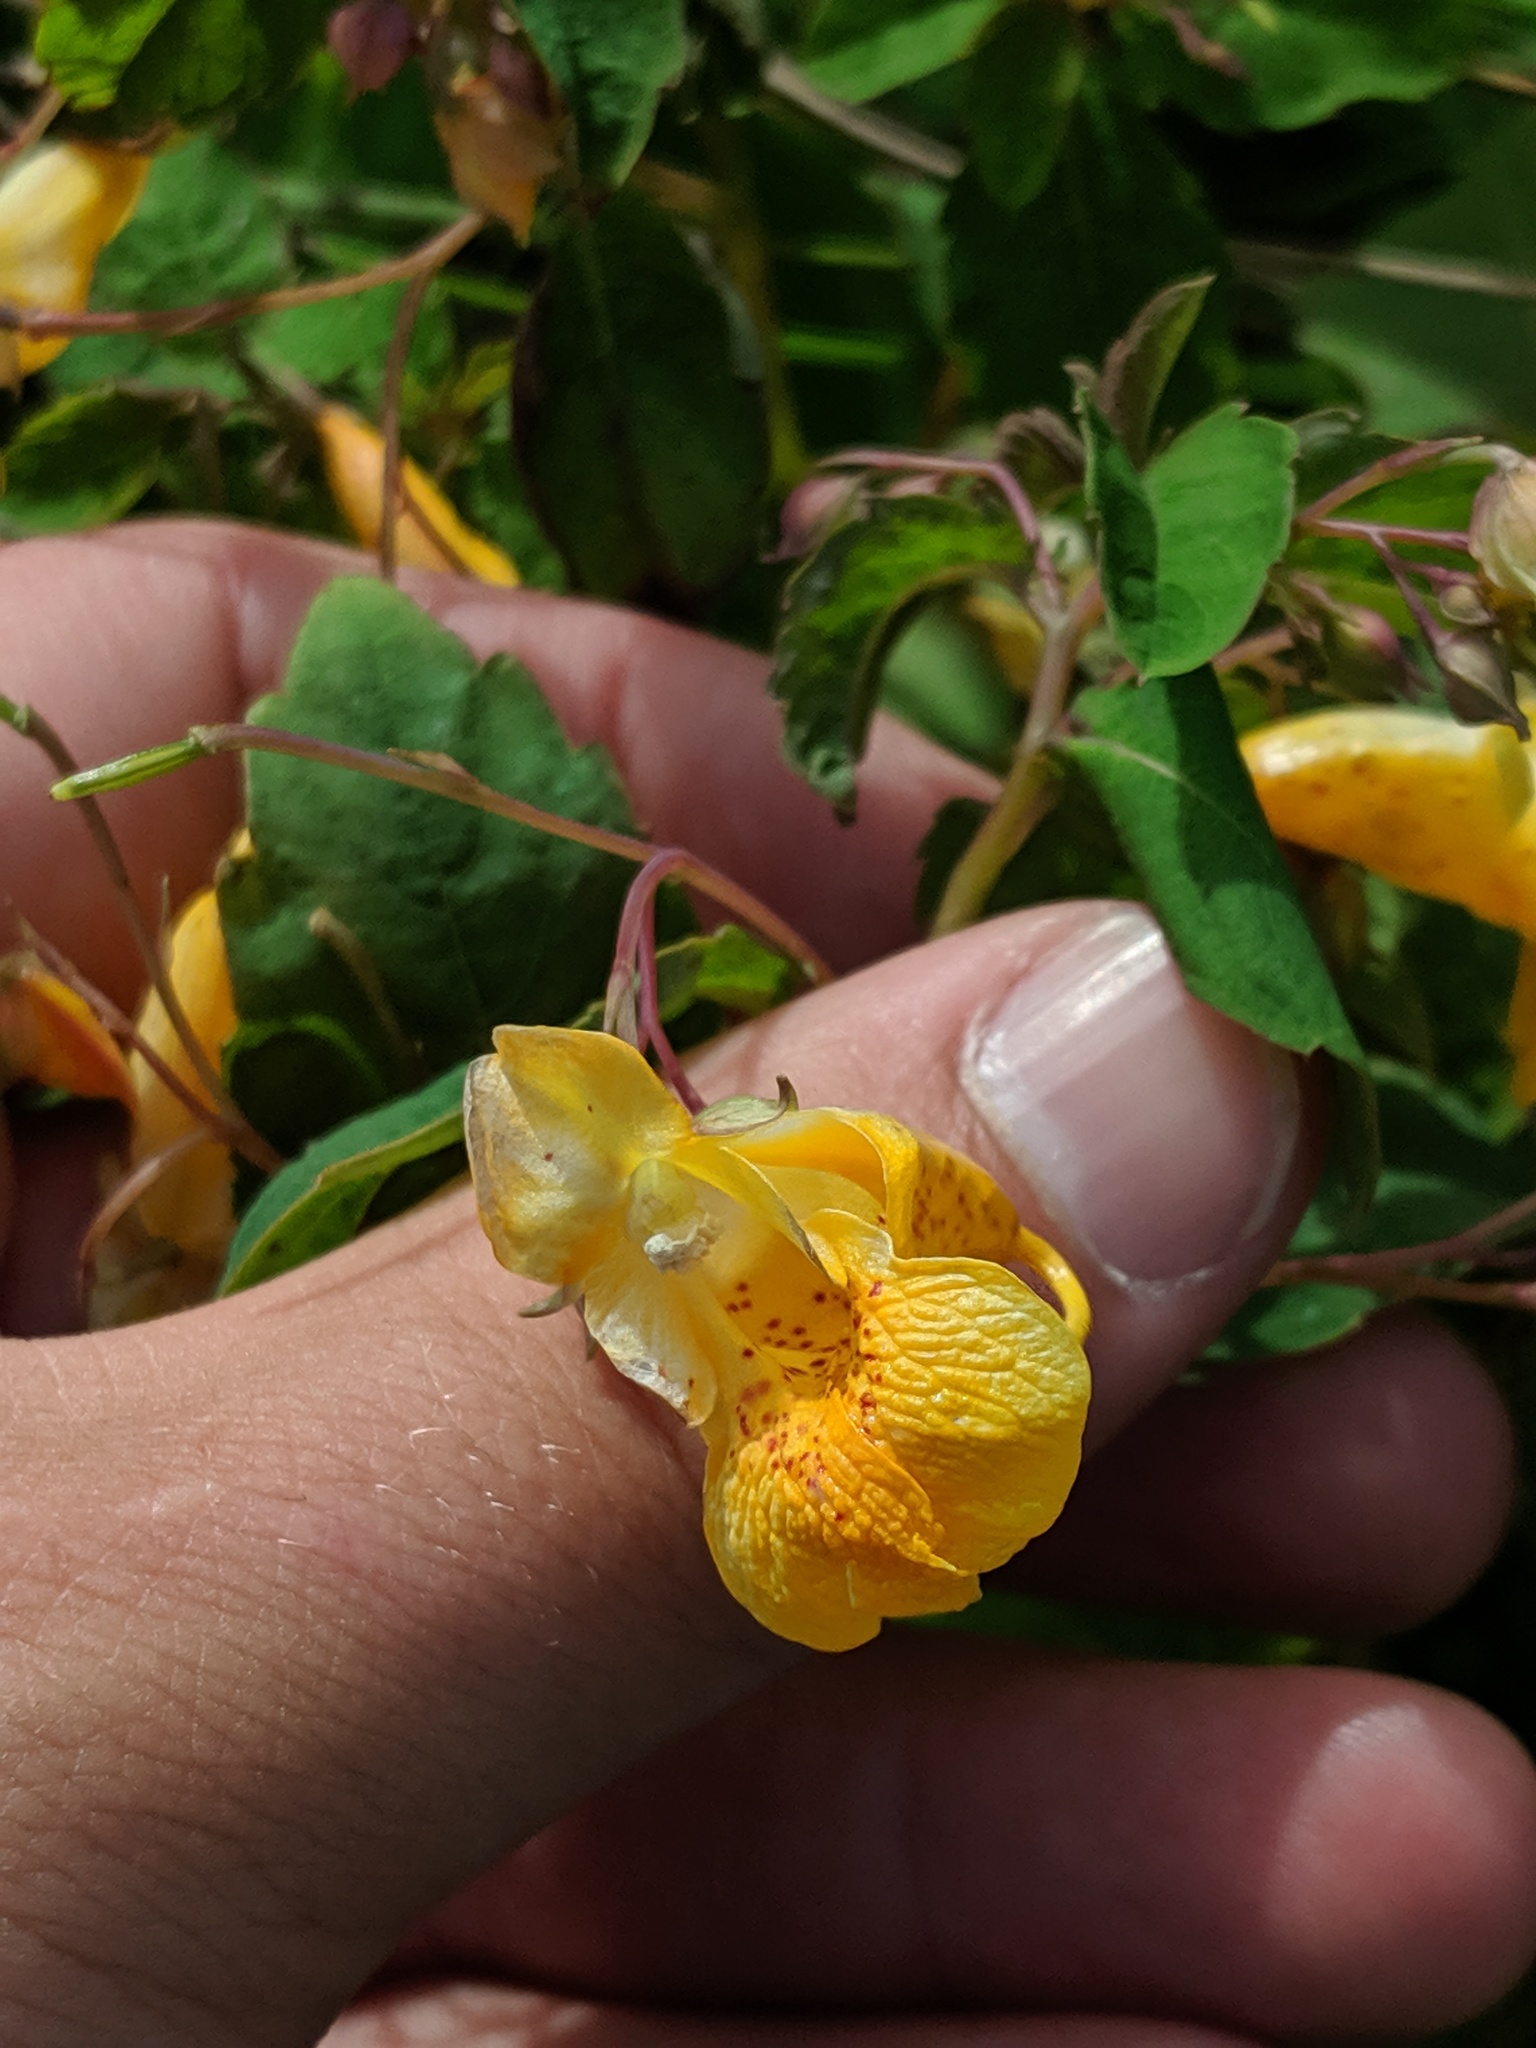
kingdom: Plantae
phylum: Tracheophyta
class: Magnoliopsida
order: Ericales
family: Balsaminaceae
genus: Impatiens
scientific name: Impatiens capensis
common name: Orange balsam
